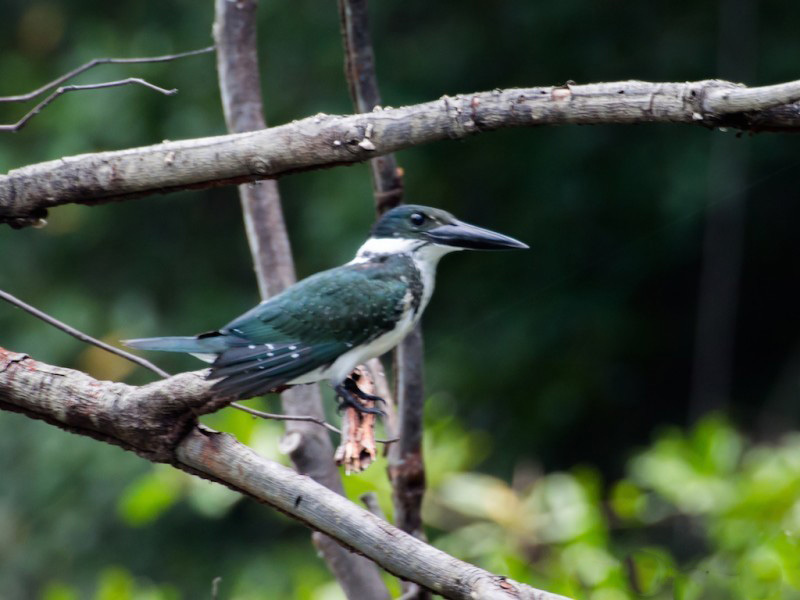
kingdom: Animalia
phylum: Chordata
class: Aves
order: Coraciiformes
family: Alcedinidae
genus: Chloroceryle
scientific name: Chloroceryle amazona
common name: Amazon kingfisher
